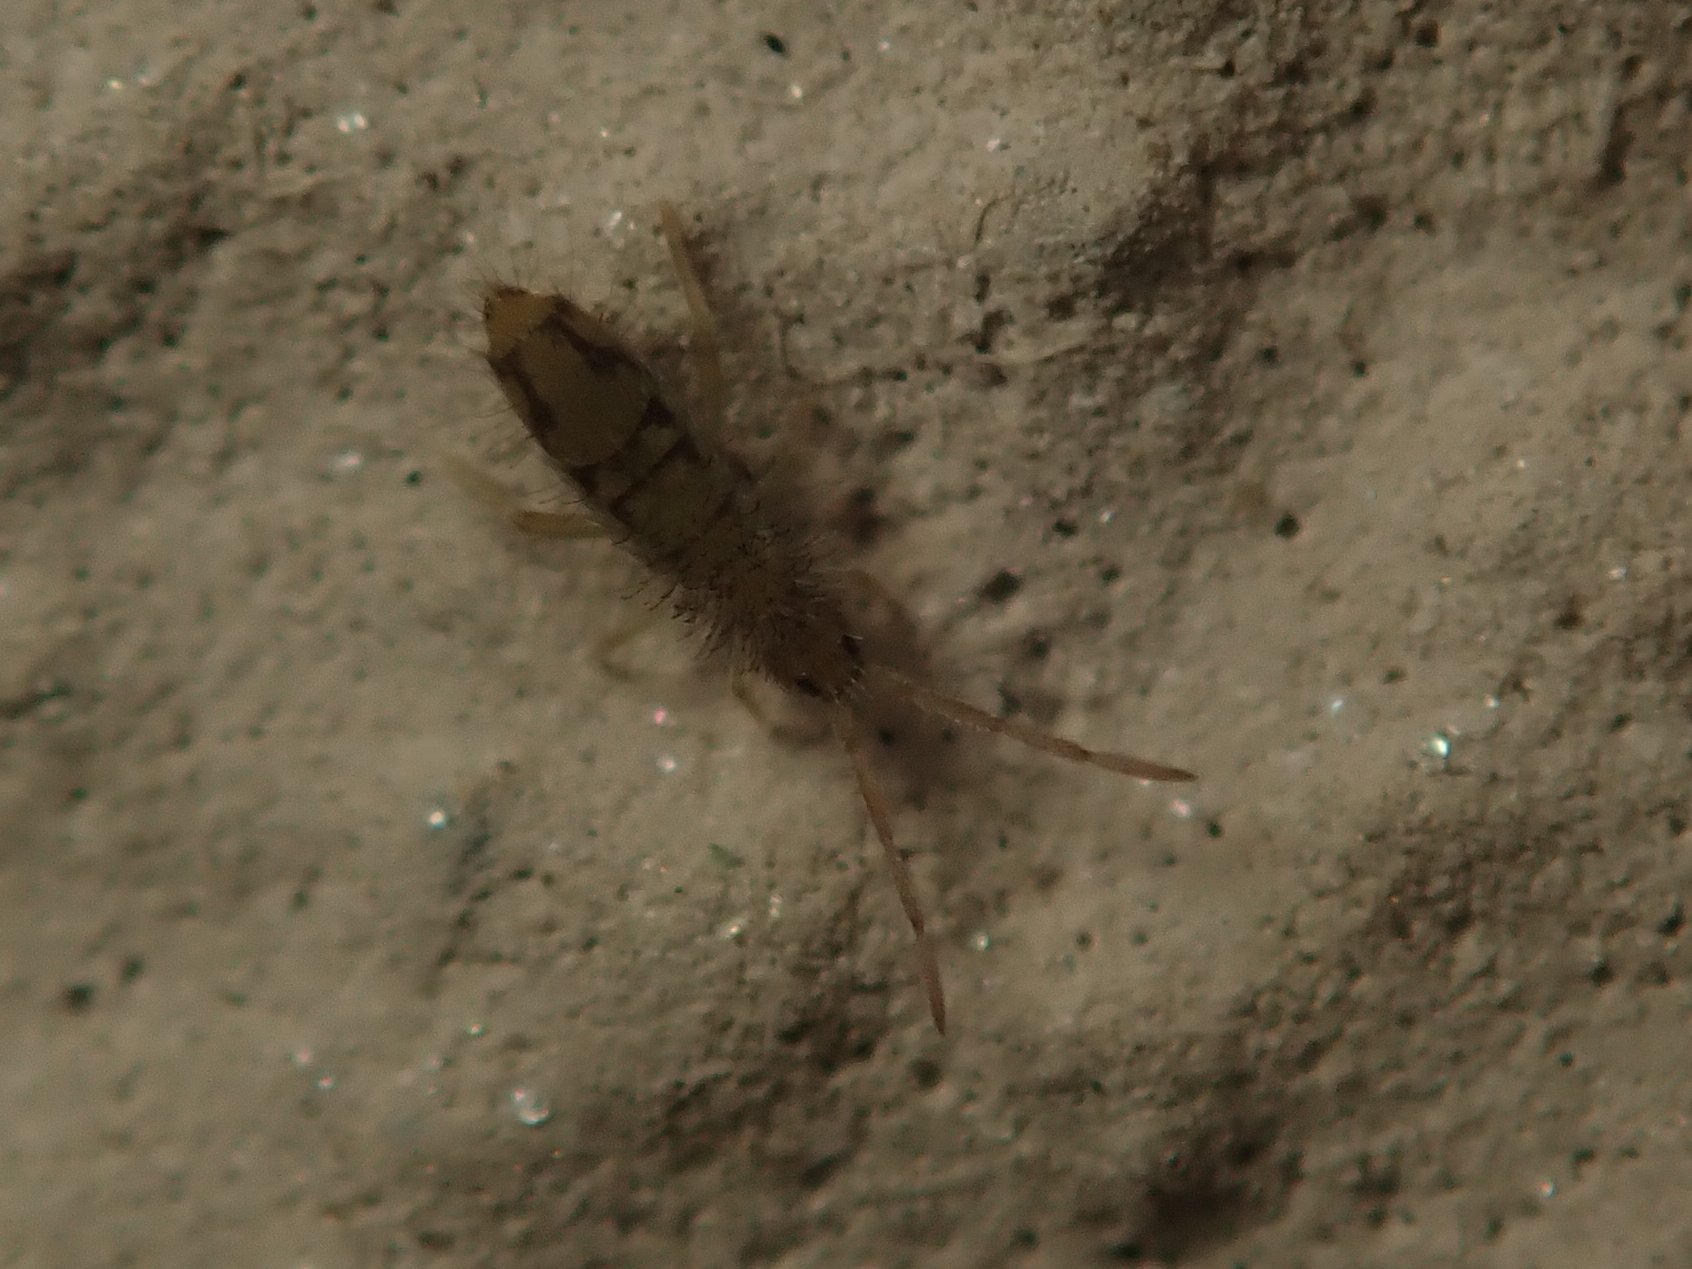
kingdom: Animalia
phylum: Arthropoda
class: Collembola
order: Entomobryomorpha
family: Entomobryidae
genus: Entomobrya
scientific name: Entomobrya nivalis
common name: Cosmopolitan springtail
